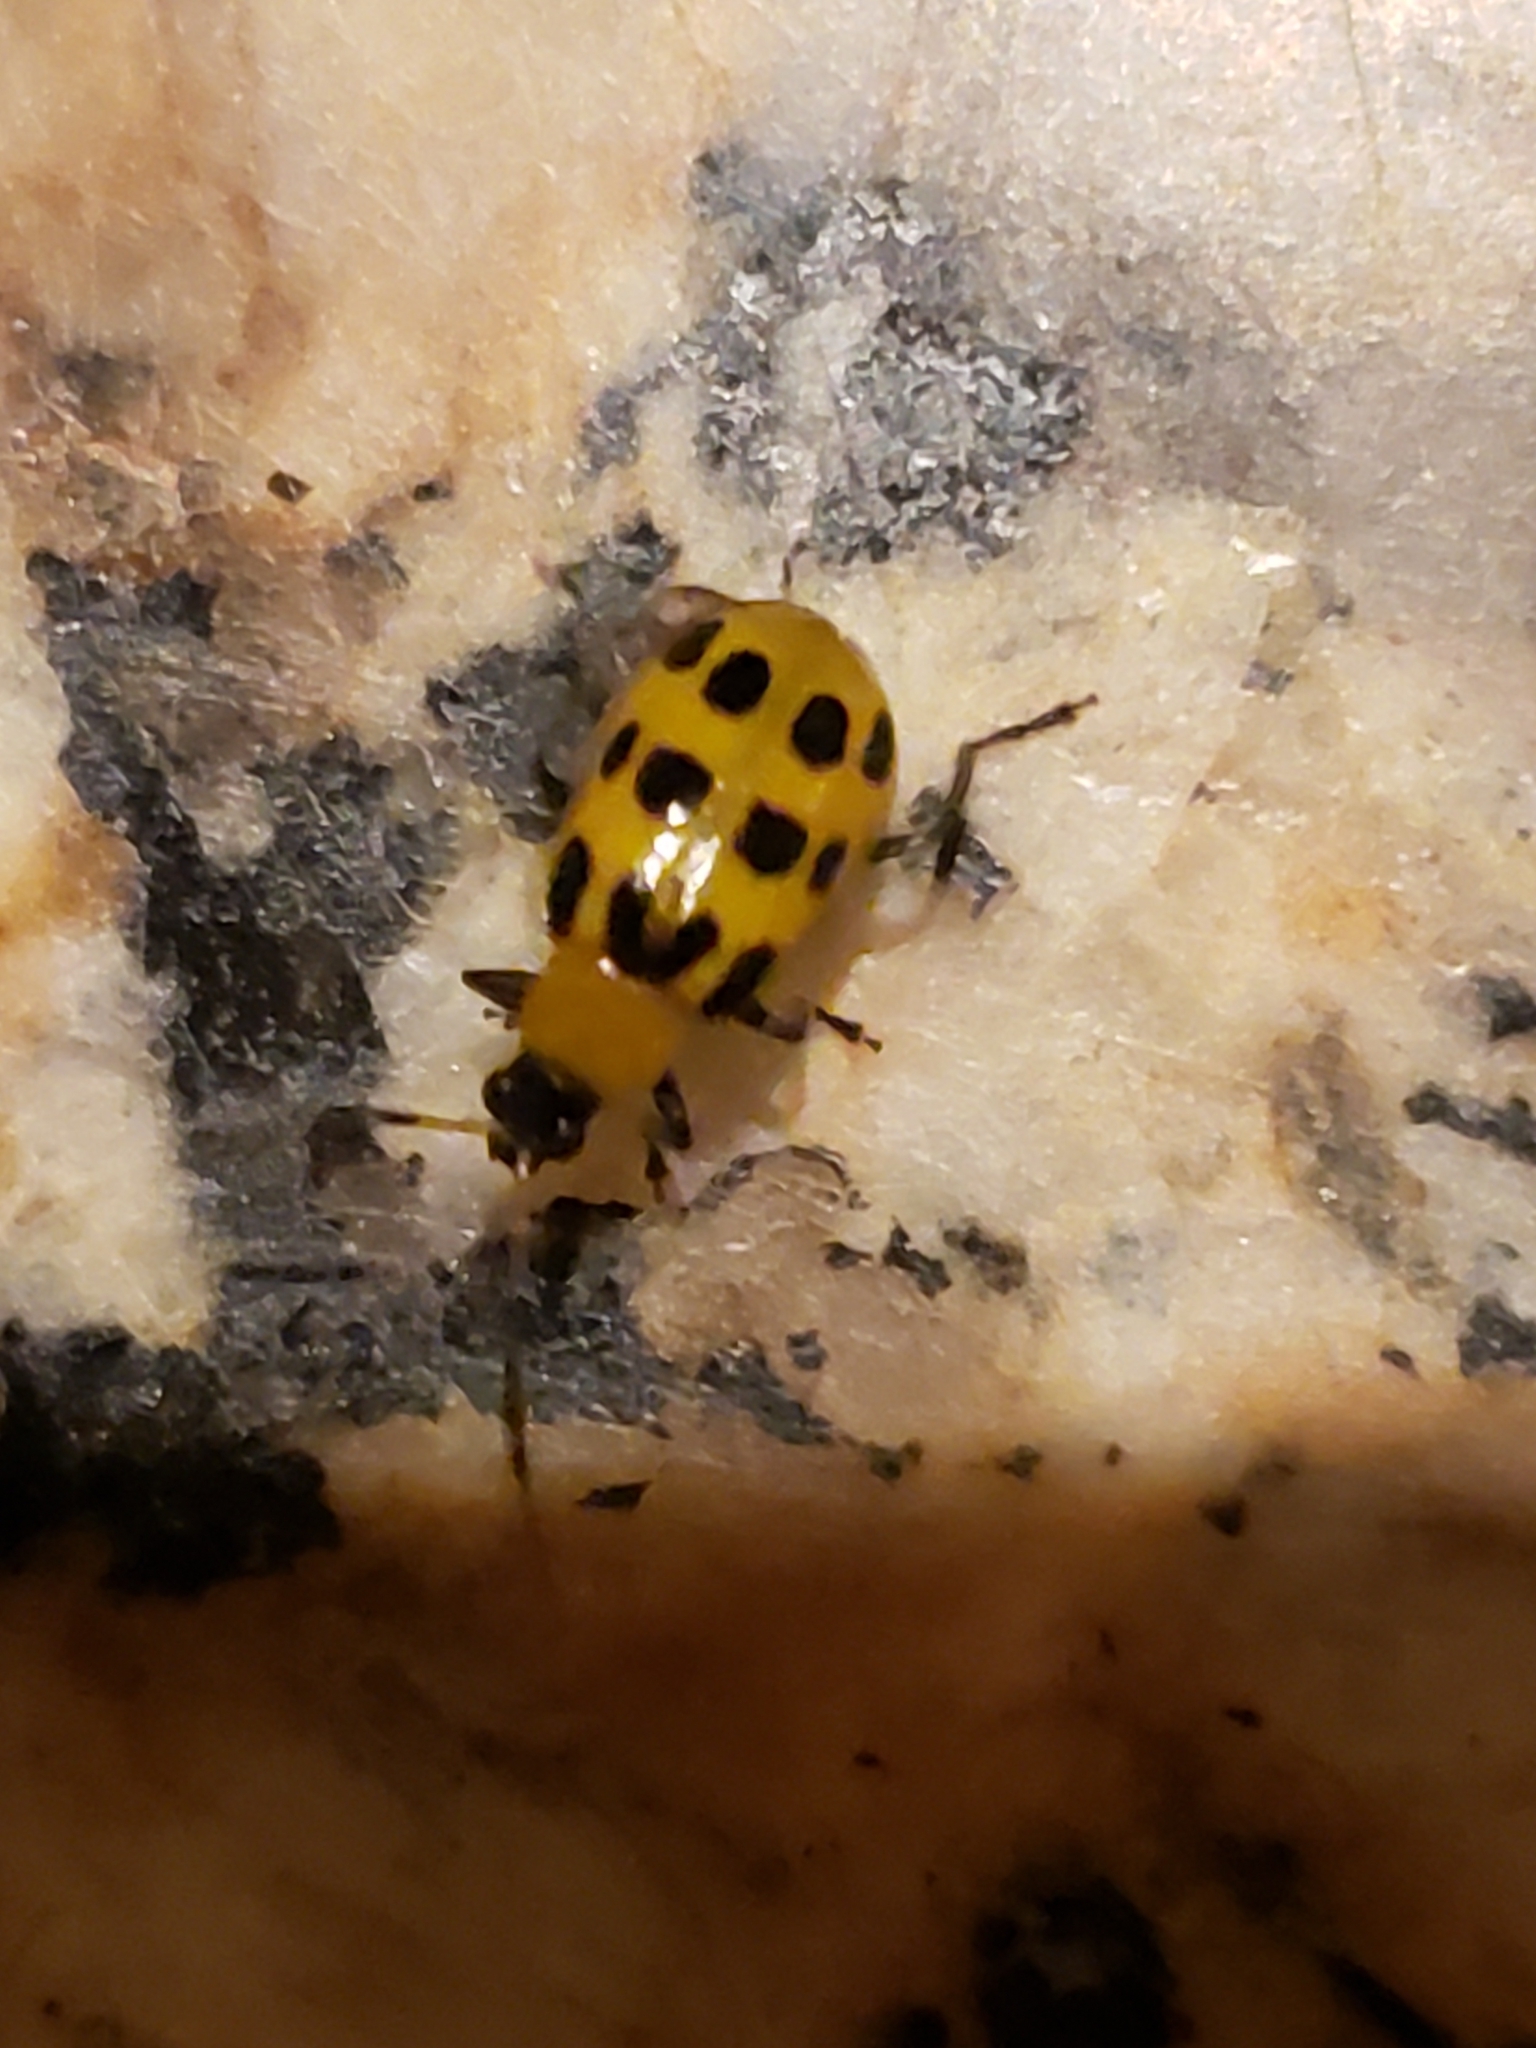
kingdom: Animalia
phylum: Arthropoda
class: Insecta
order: Coleoptera
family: Chrysomelidae
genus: Diabrotica
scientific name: Diabrotica undecimpunctata
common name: Spotted cucumber beetle
